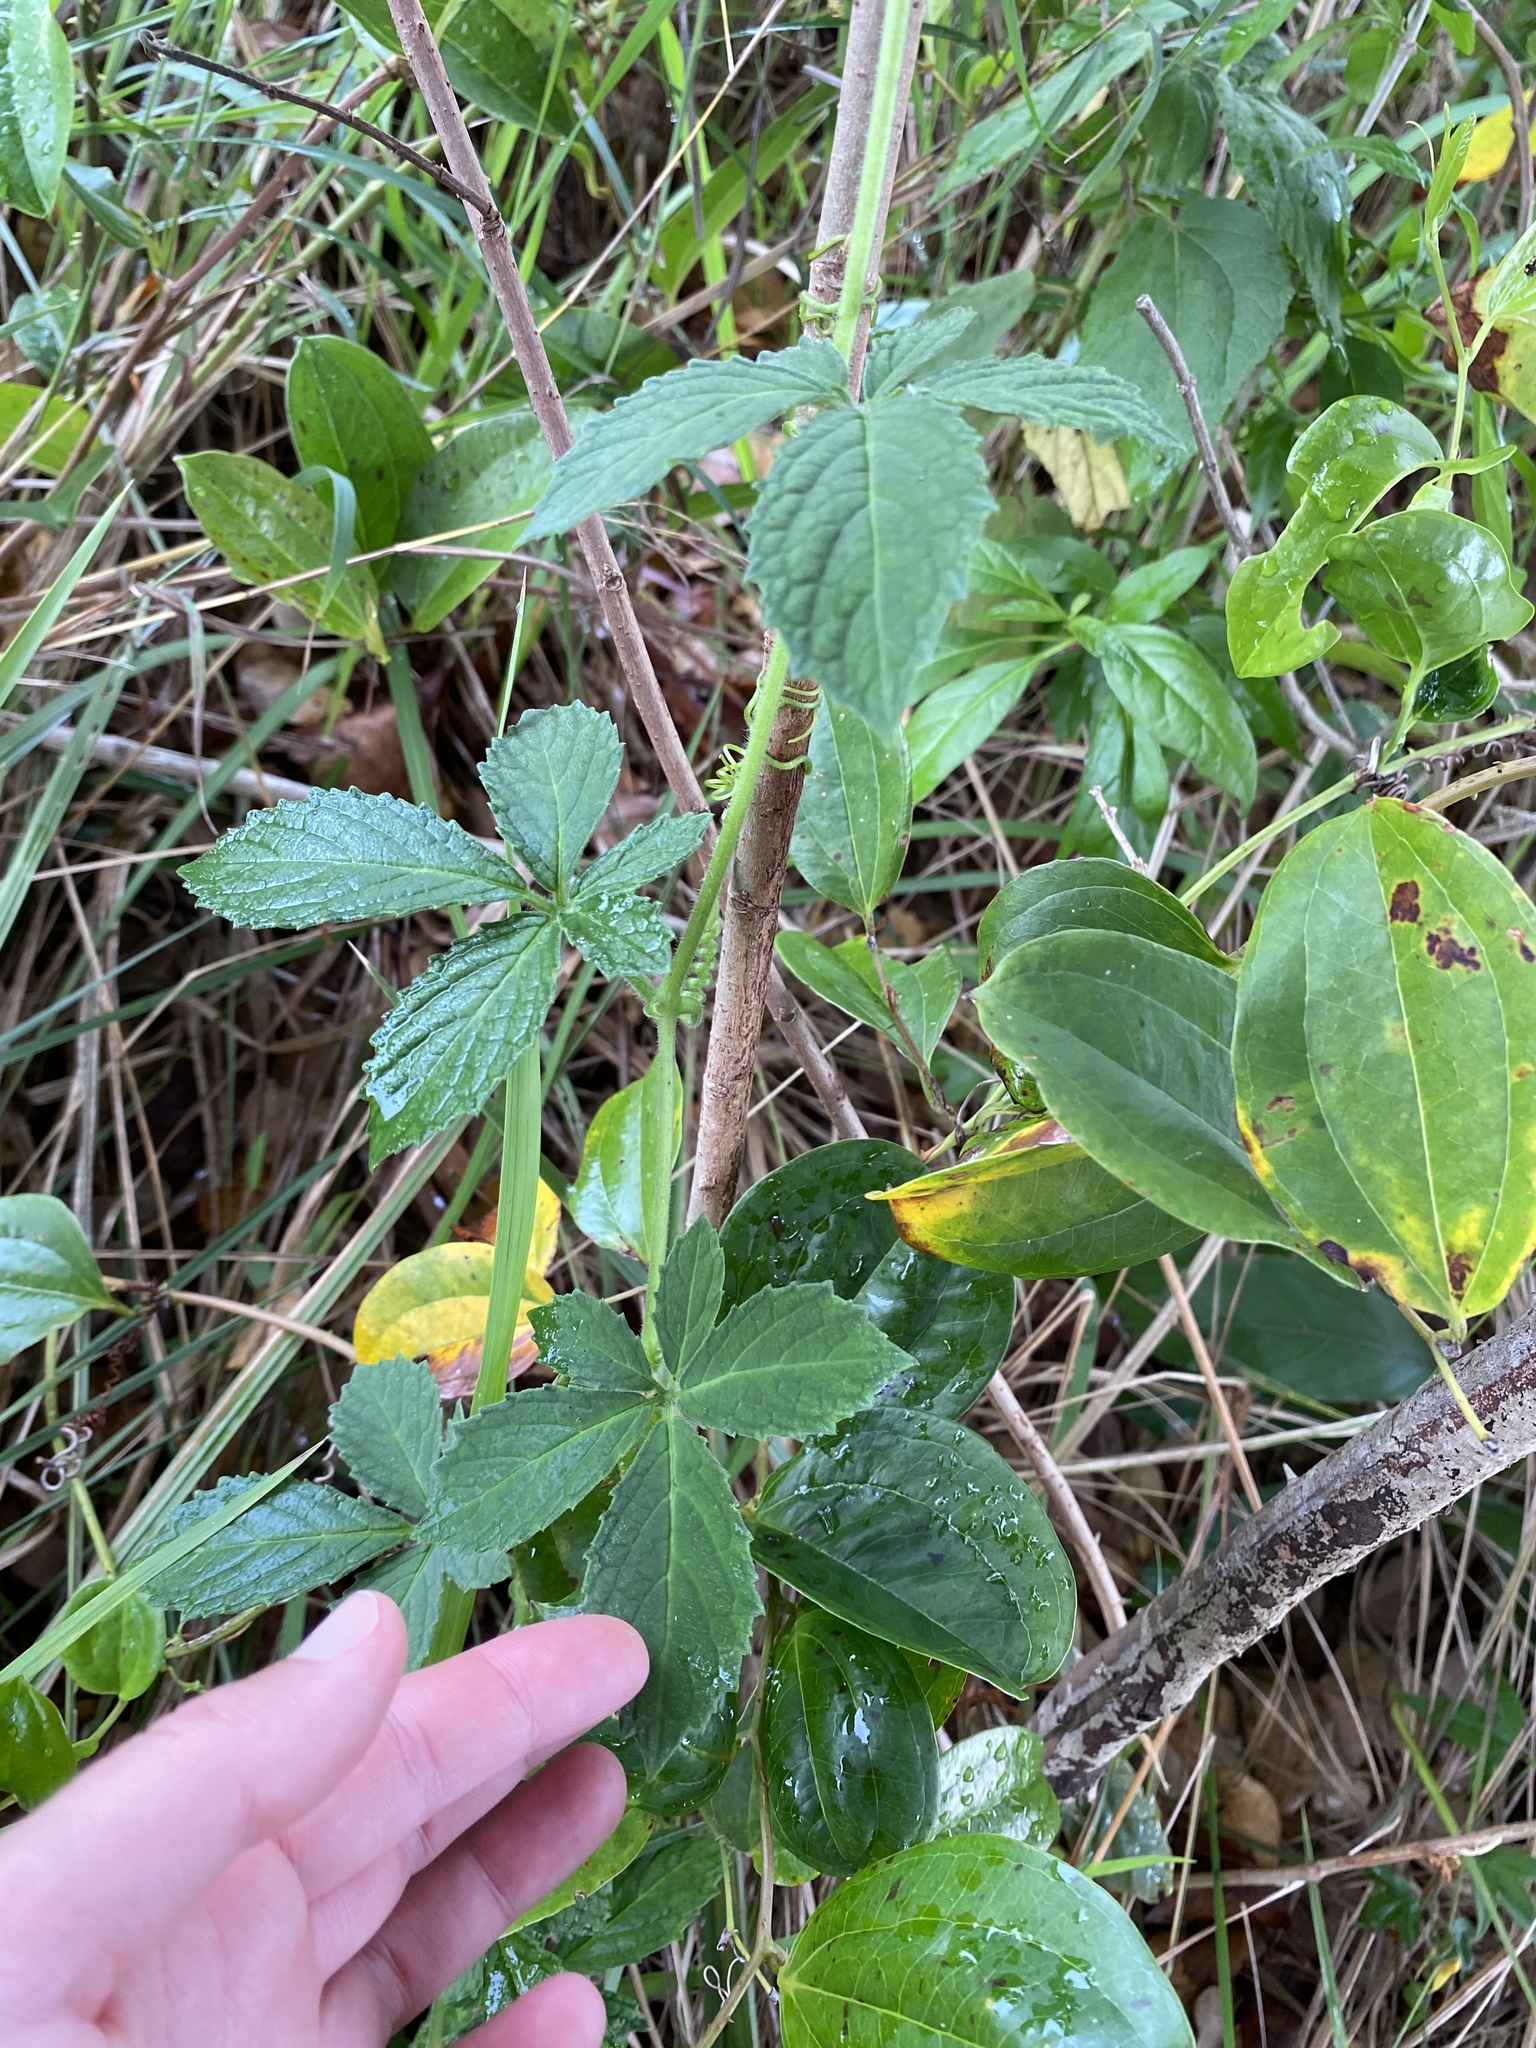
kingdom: Plantae
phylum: Tracheophyta
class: Magnoliopsida
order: Vitales
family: Vitaceae
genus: Cyphostemma
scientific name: Cyphostemma cirrhosum
